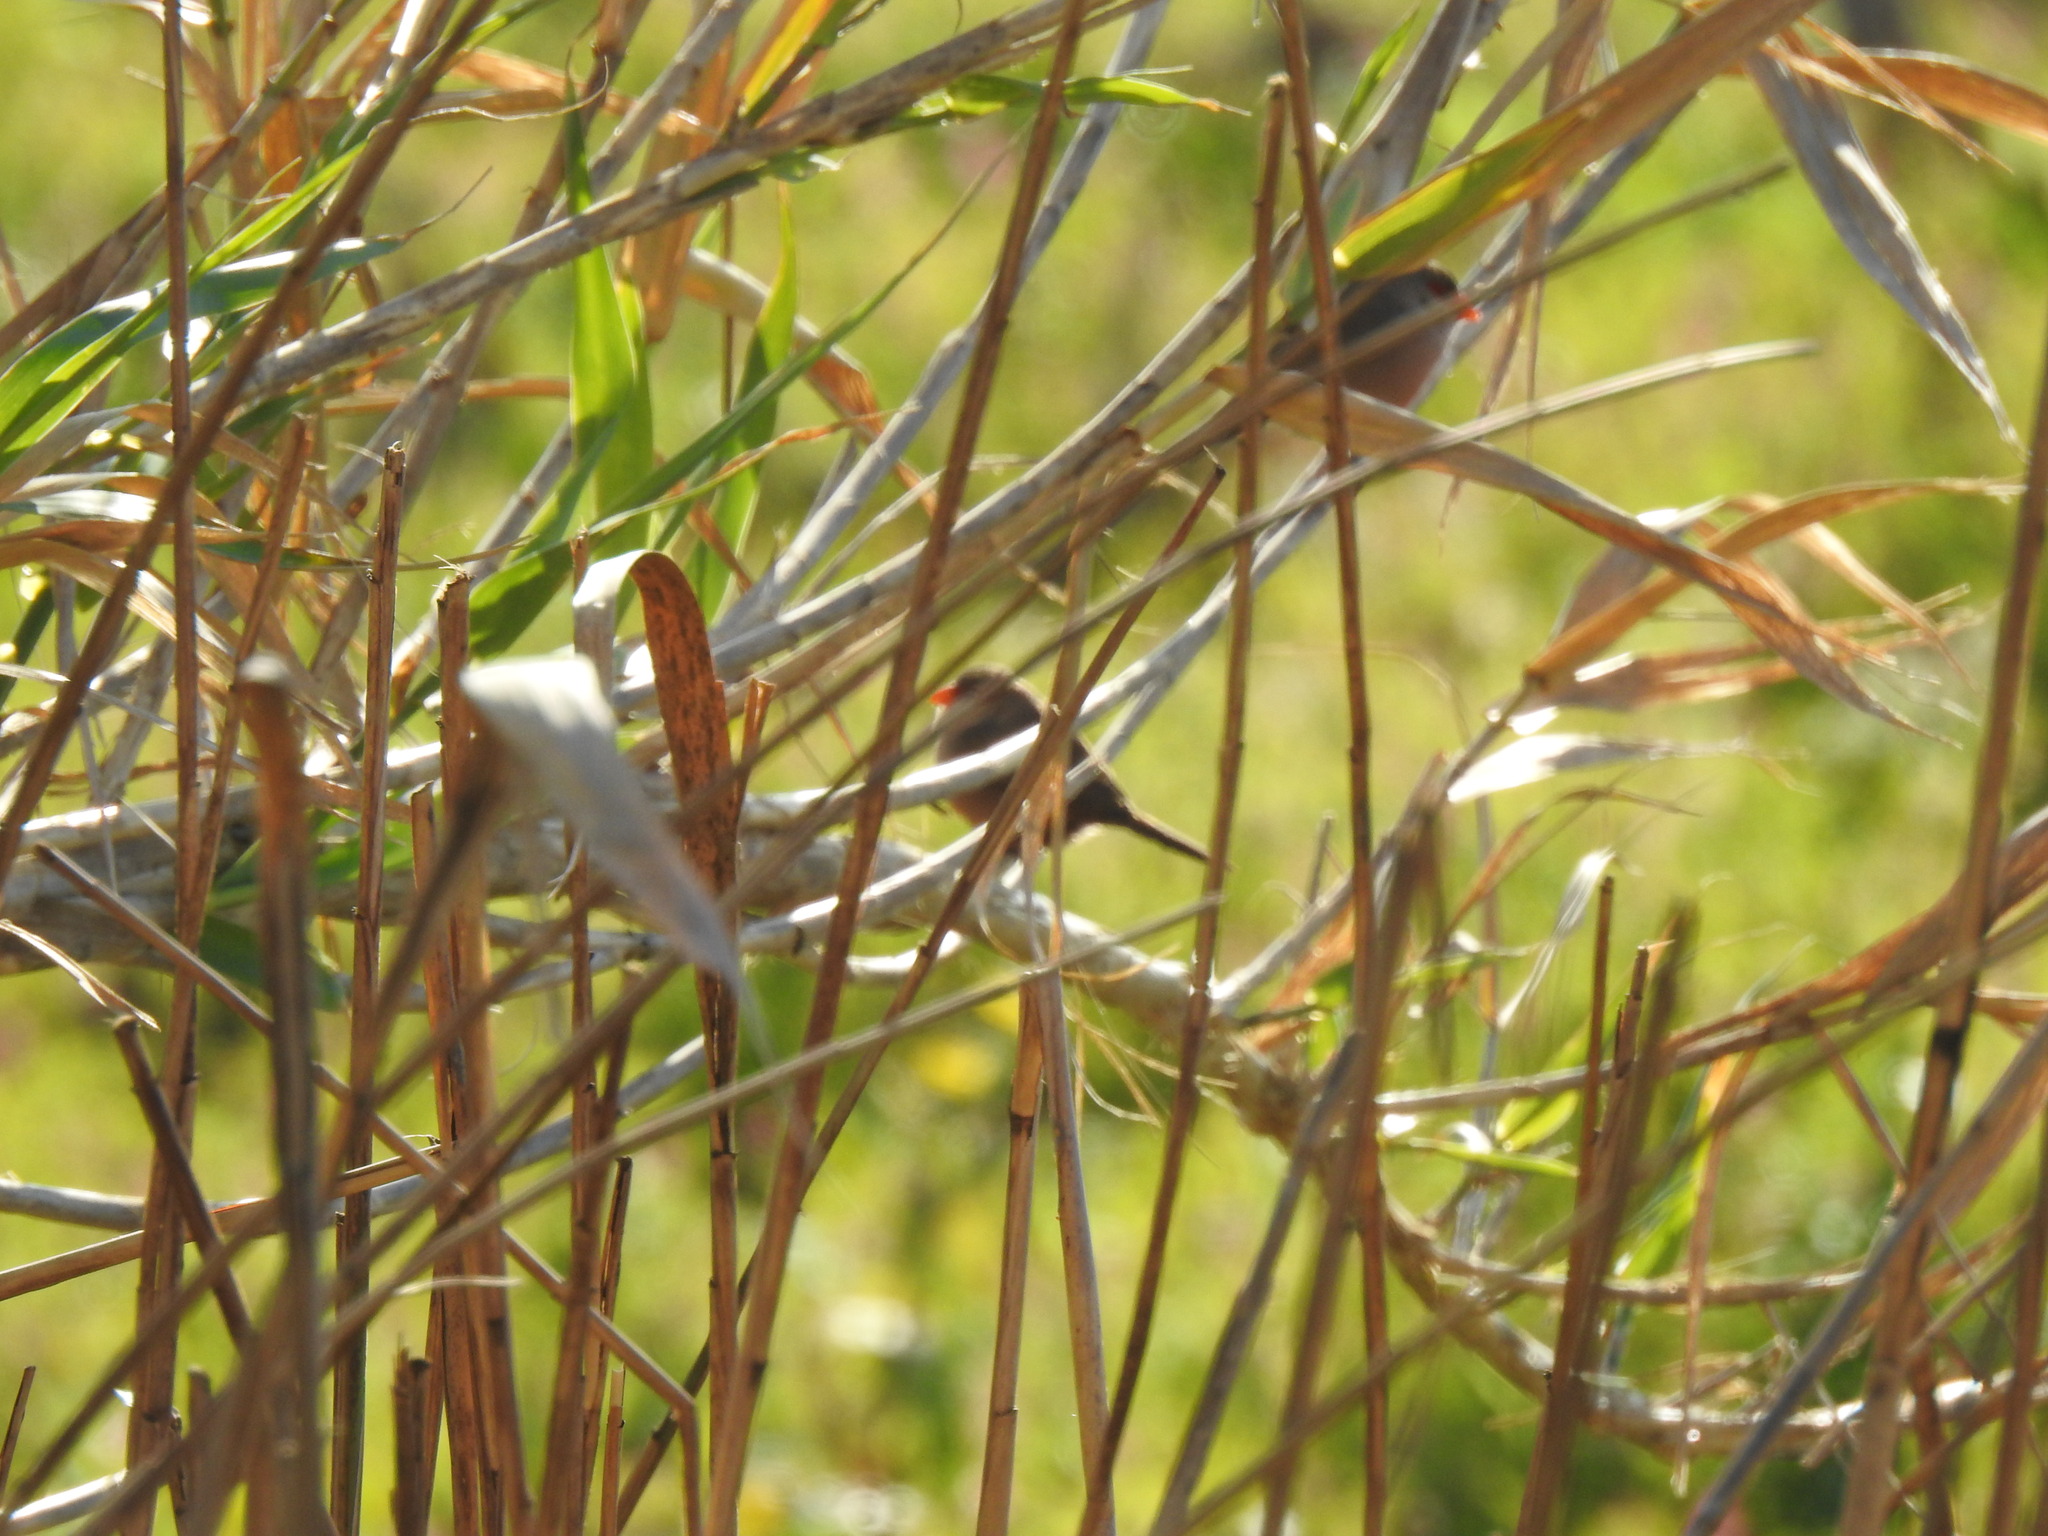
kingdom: Animalia
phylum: Chordata
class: Aves
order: Passeriformes
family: Estrildidae
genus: Estrilda
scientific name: Estrilda astrild
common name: Common waxbill
